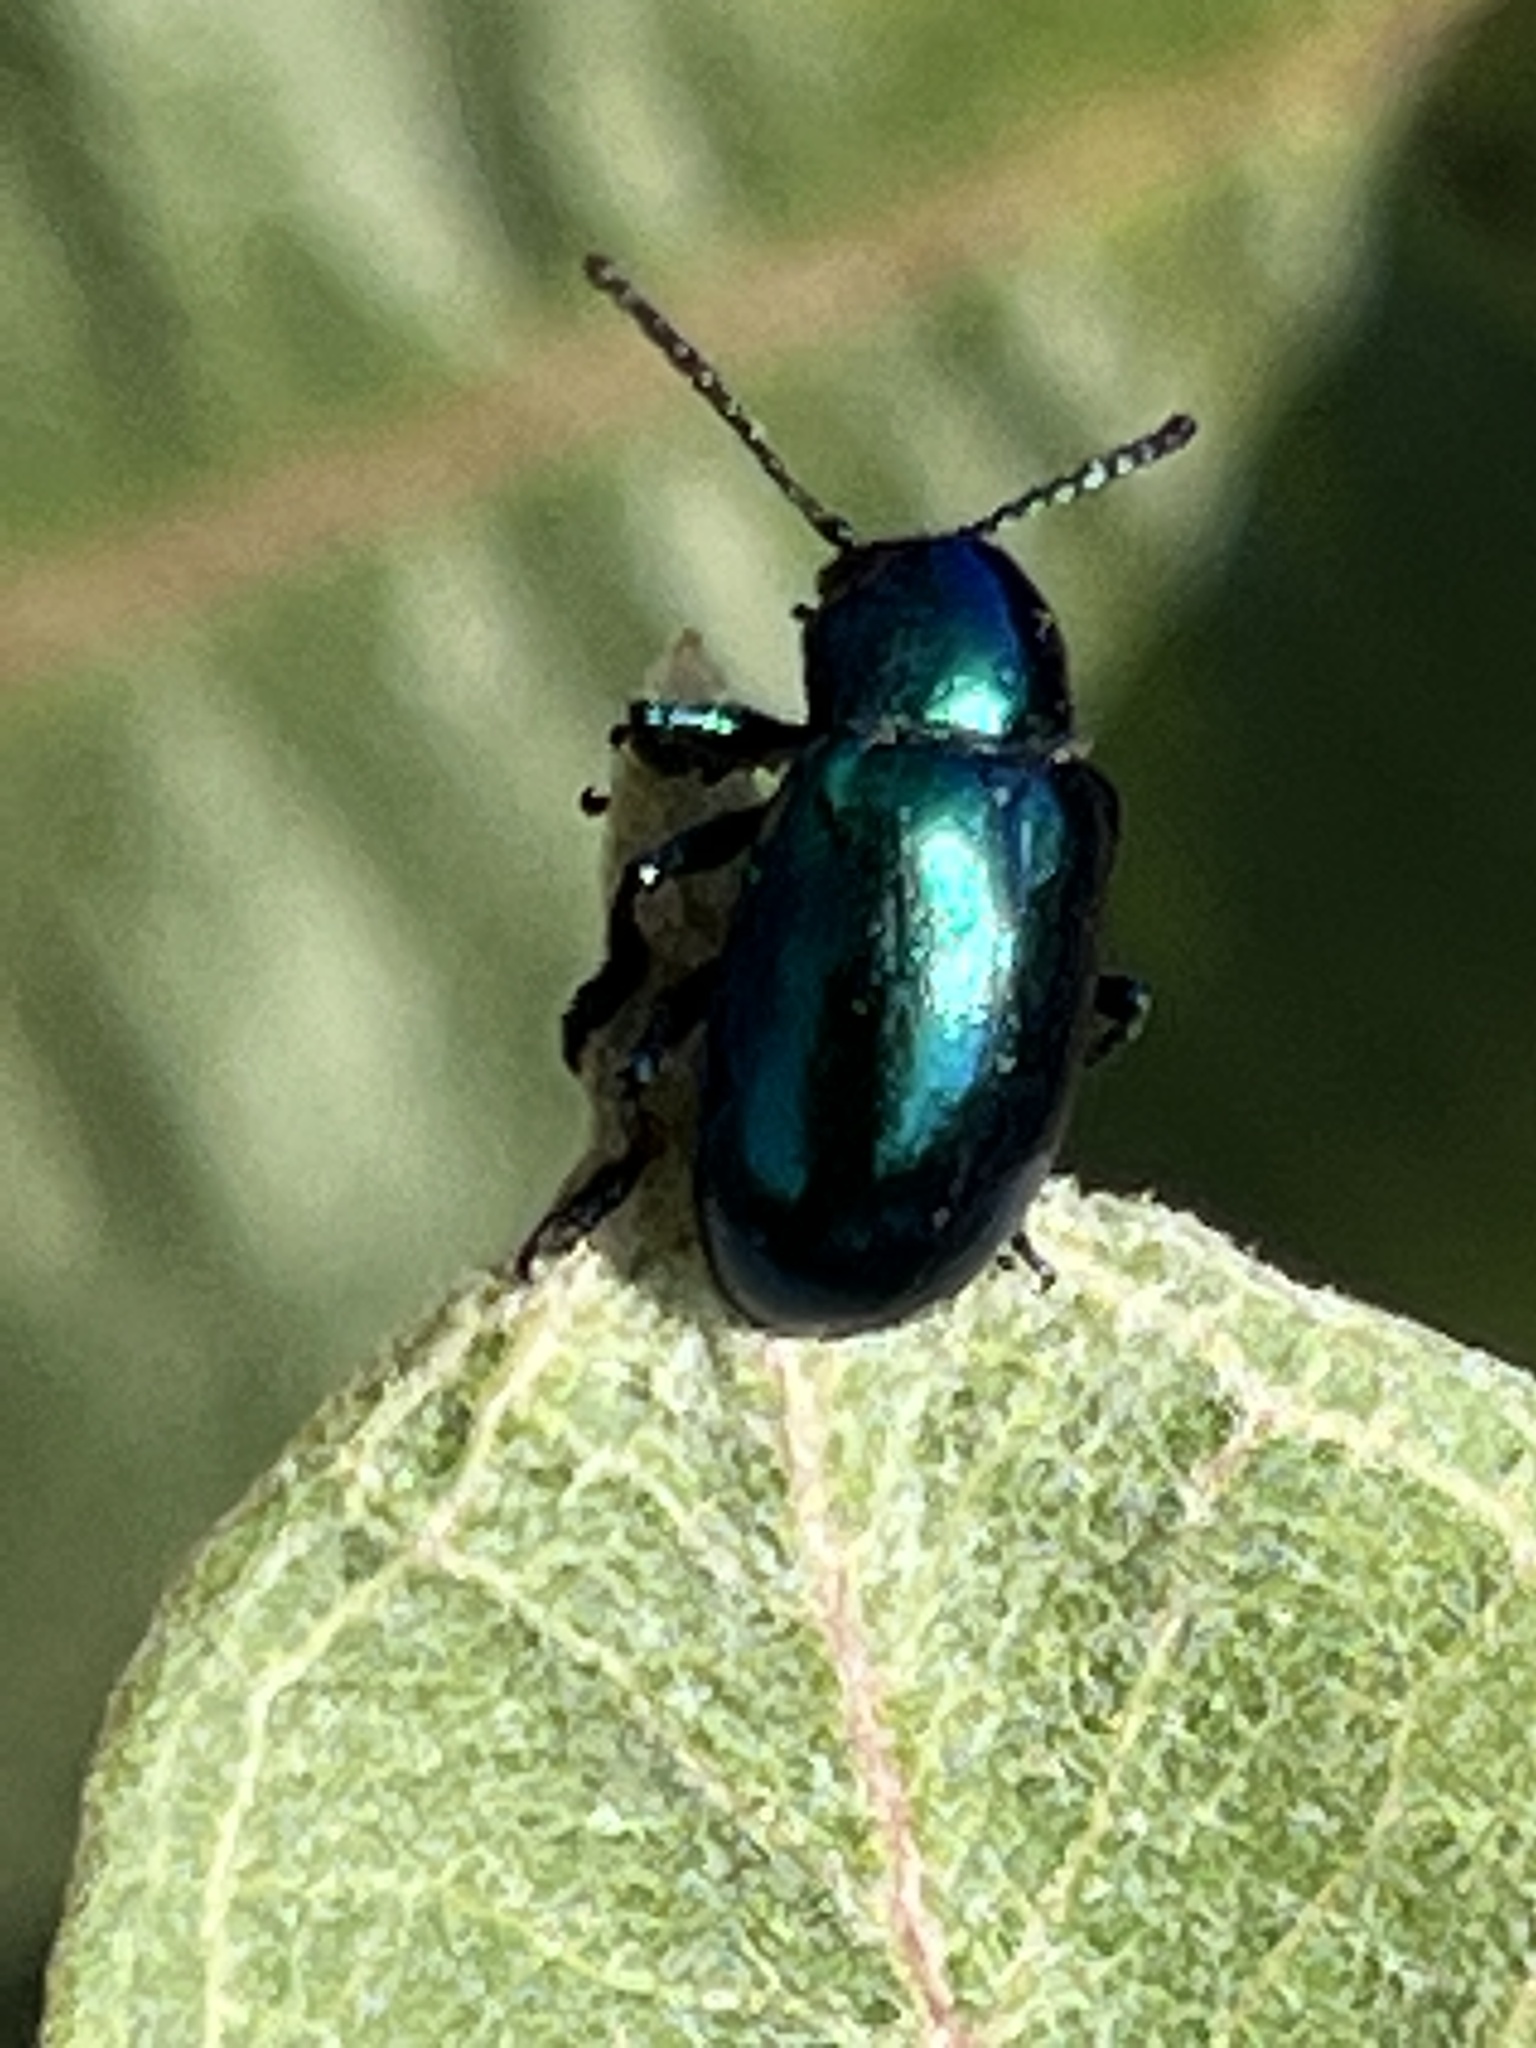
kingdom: Animalia
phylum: Arthropoda
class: Insecta
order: Coleoptera
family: Chrysomelidae
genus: Chrysochus
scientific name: Chrysochus cobaltinus
